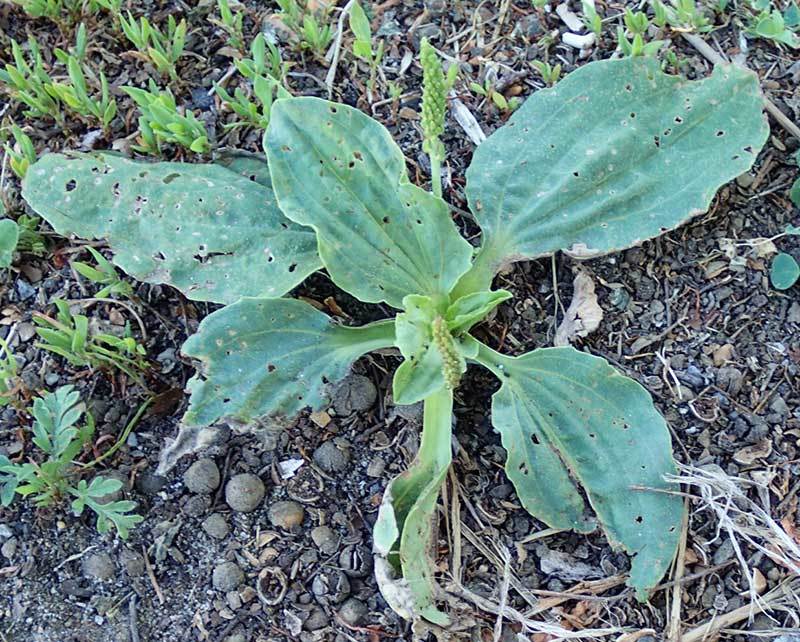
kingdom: Plantae
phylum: Tracheophyta
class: Magnoliopsida
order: Lamiales
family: Plantaginaceae
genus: Plantago
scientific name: Plantago major
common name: Common plantain
